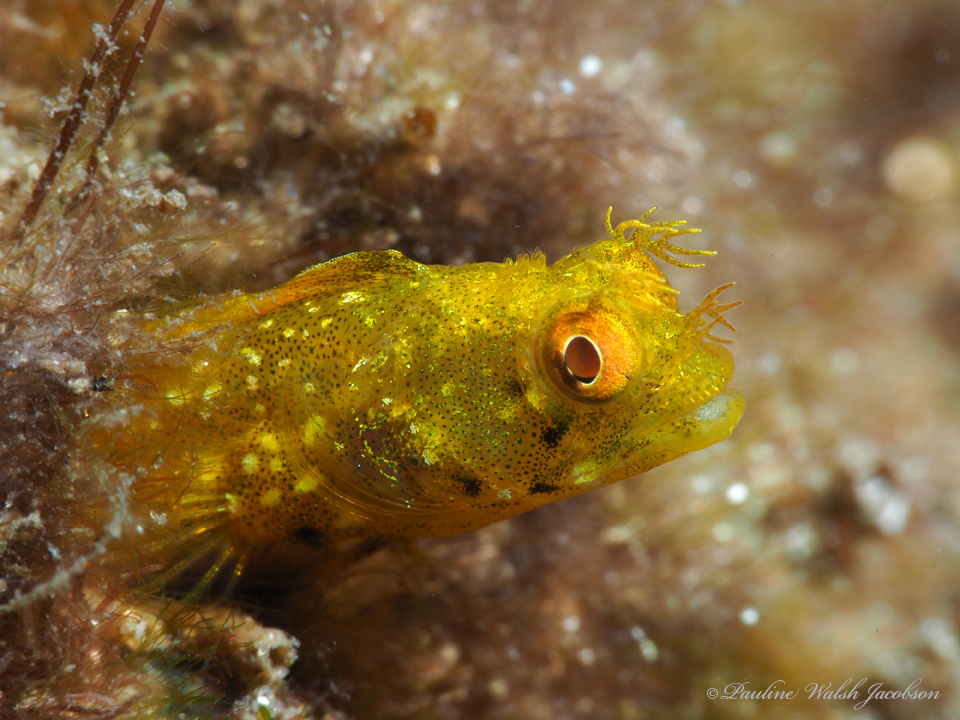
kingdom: Animalia
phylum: Chordata
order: Perciformes
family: Chaenopsidae
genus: Acanthemblemaria
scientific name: Acanthemblemaria aspera
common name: Roughhead blenny
